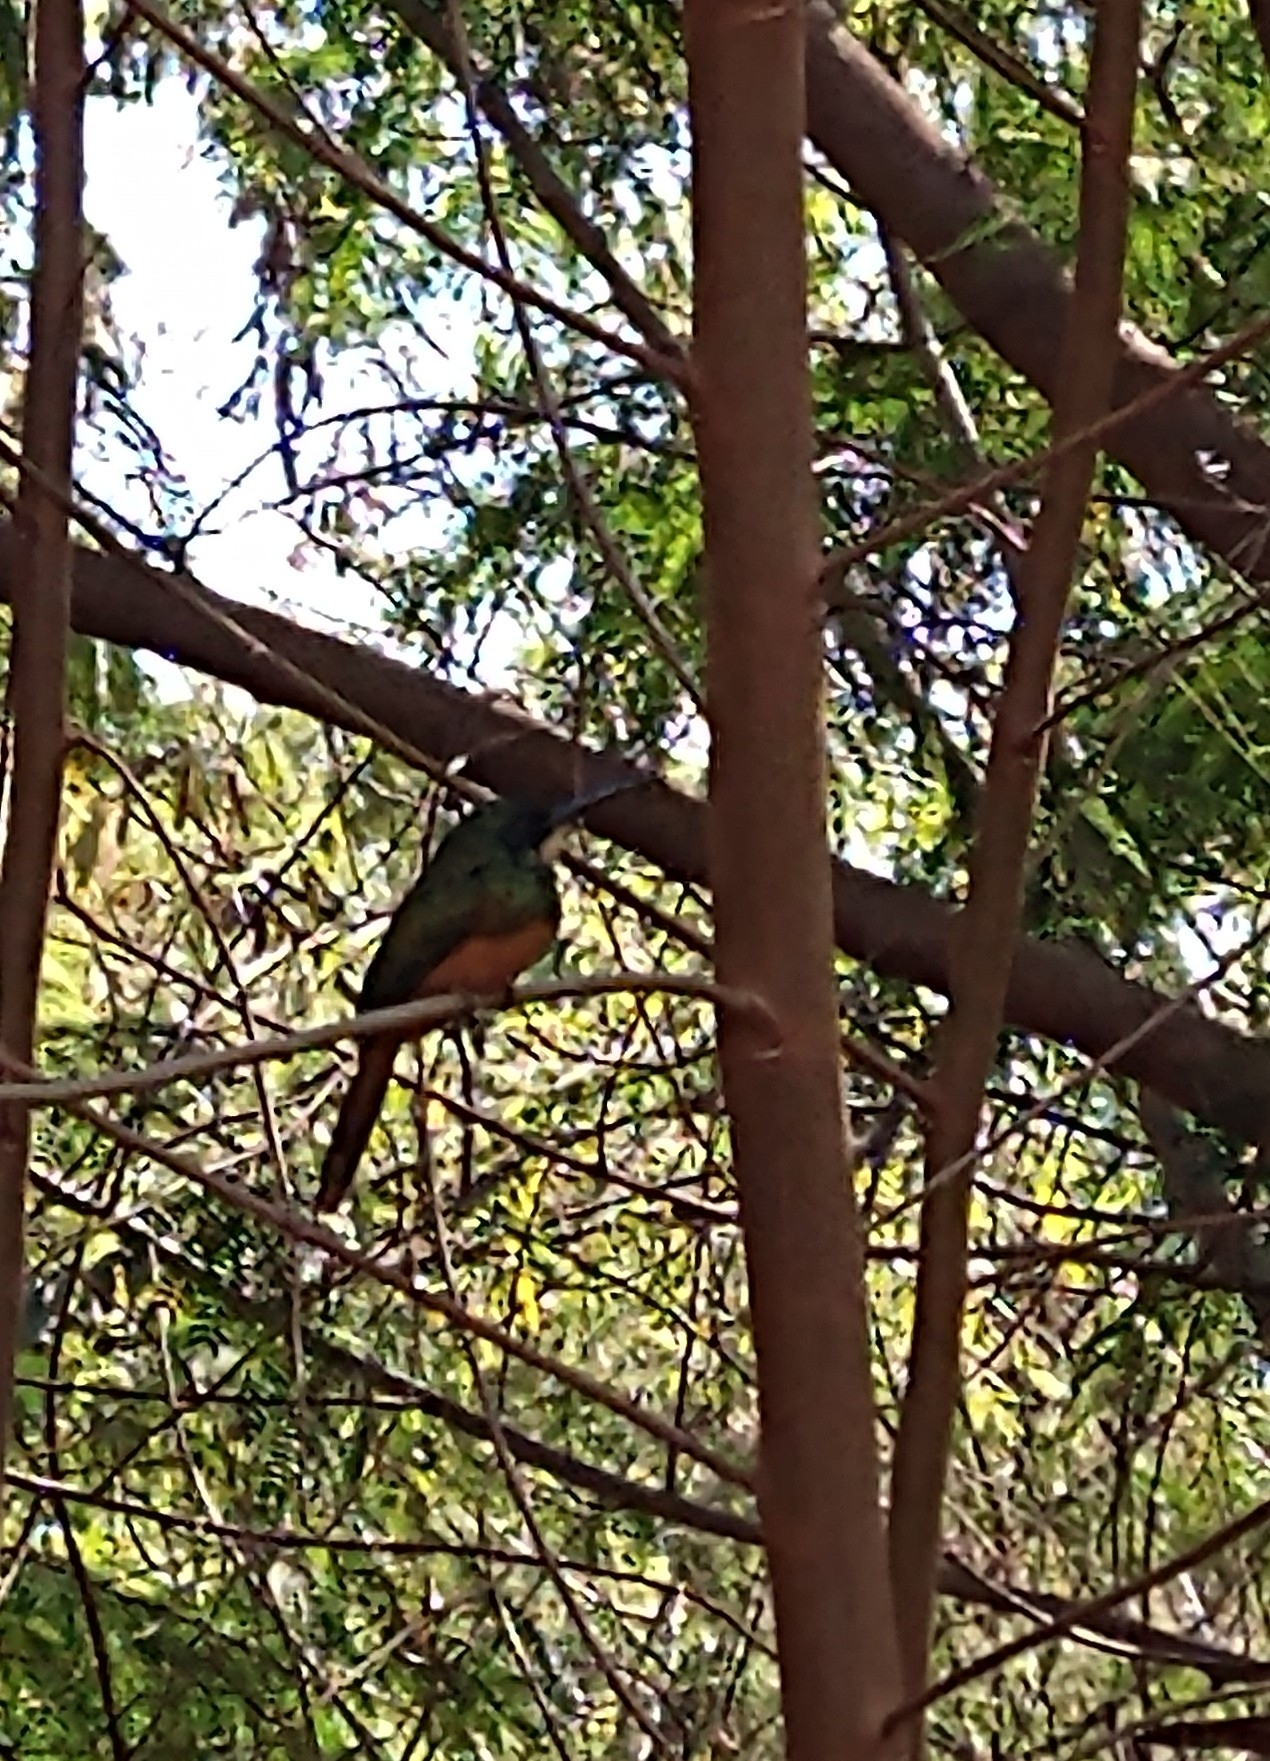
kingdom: Animalia
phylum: Chordata
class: Aves
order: Piciformes
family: Galbulidae
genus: Galbula
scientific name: Galbula ruficauda
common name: Rufous-tailed jacamar
